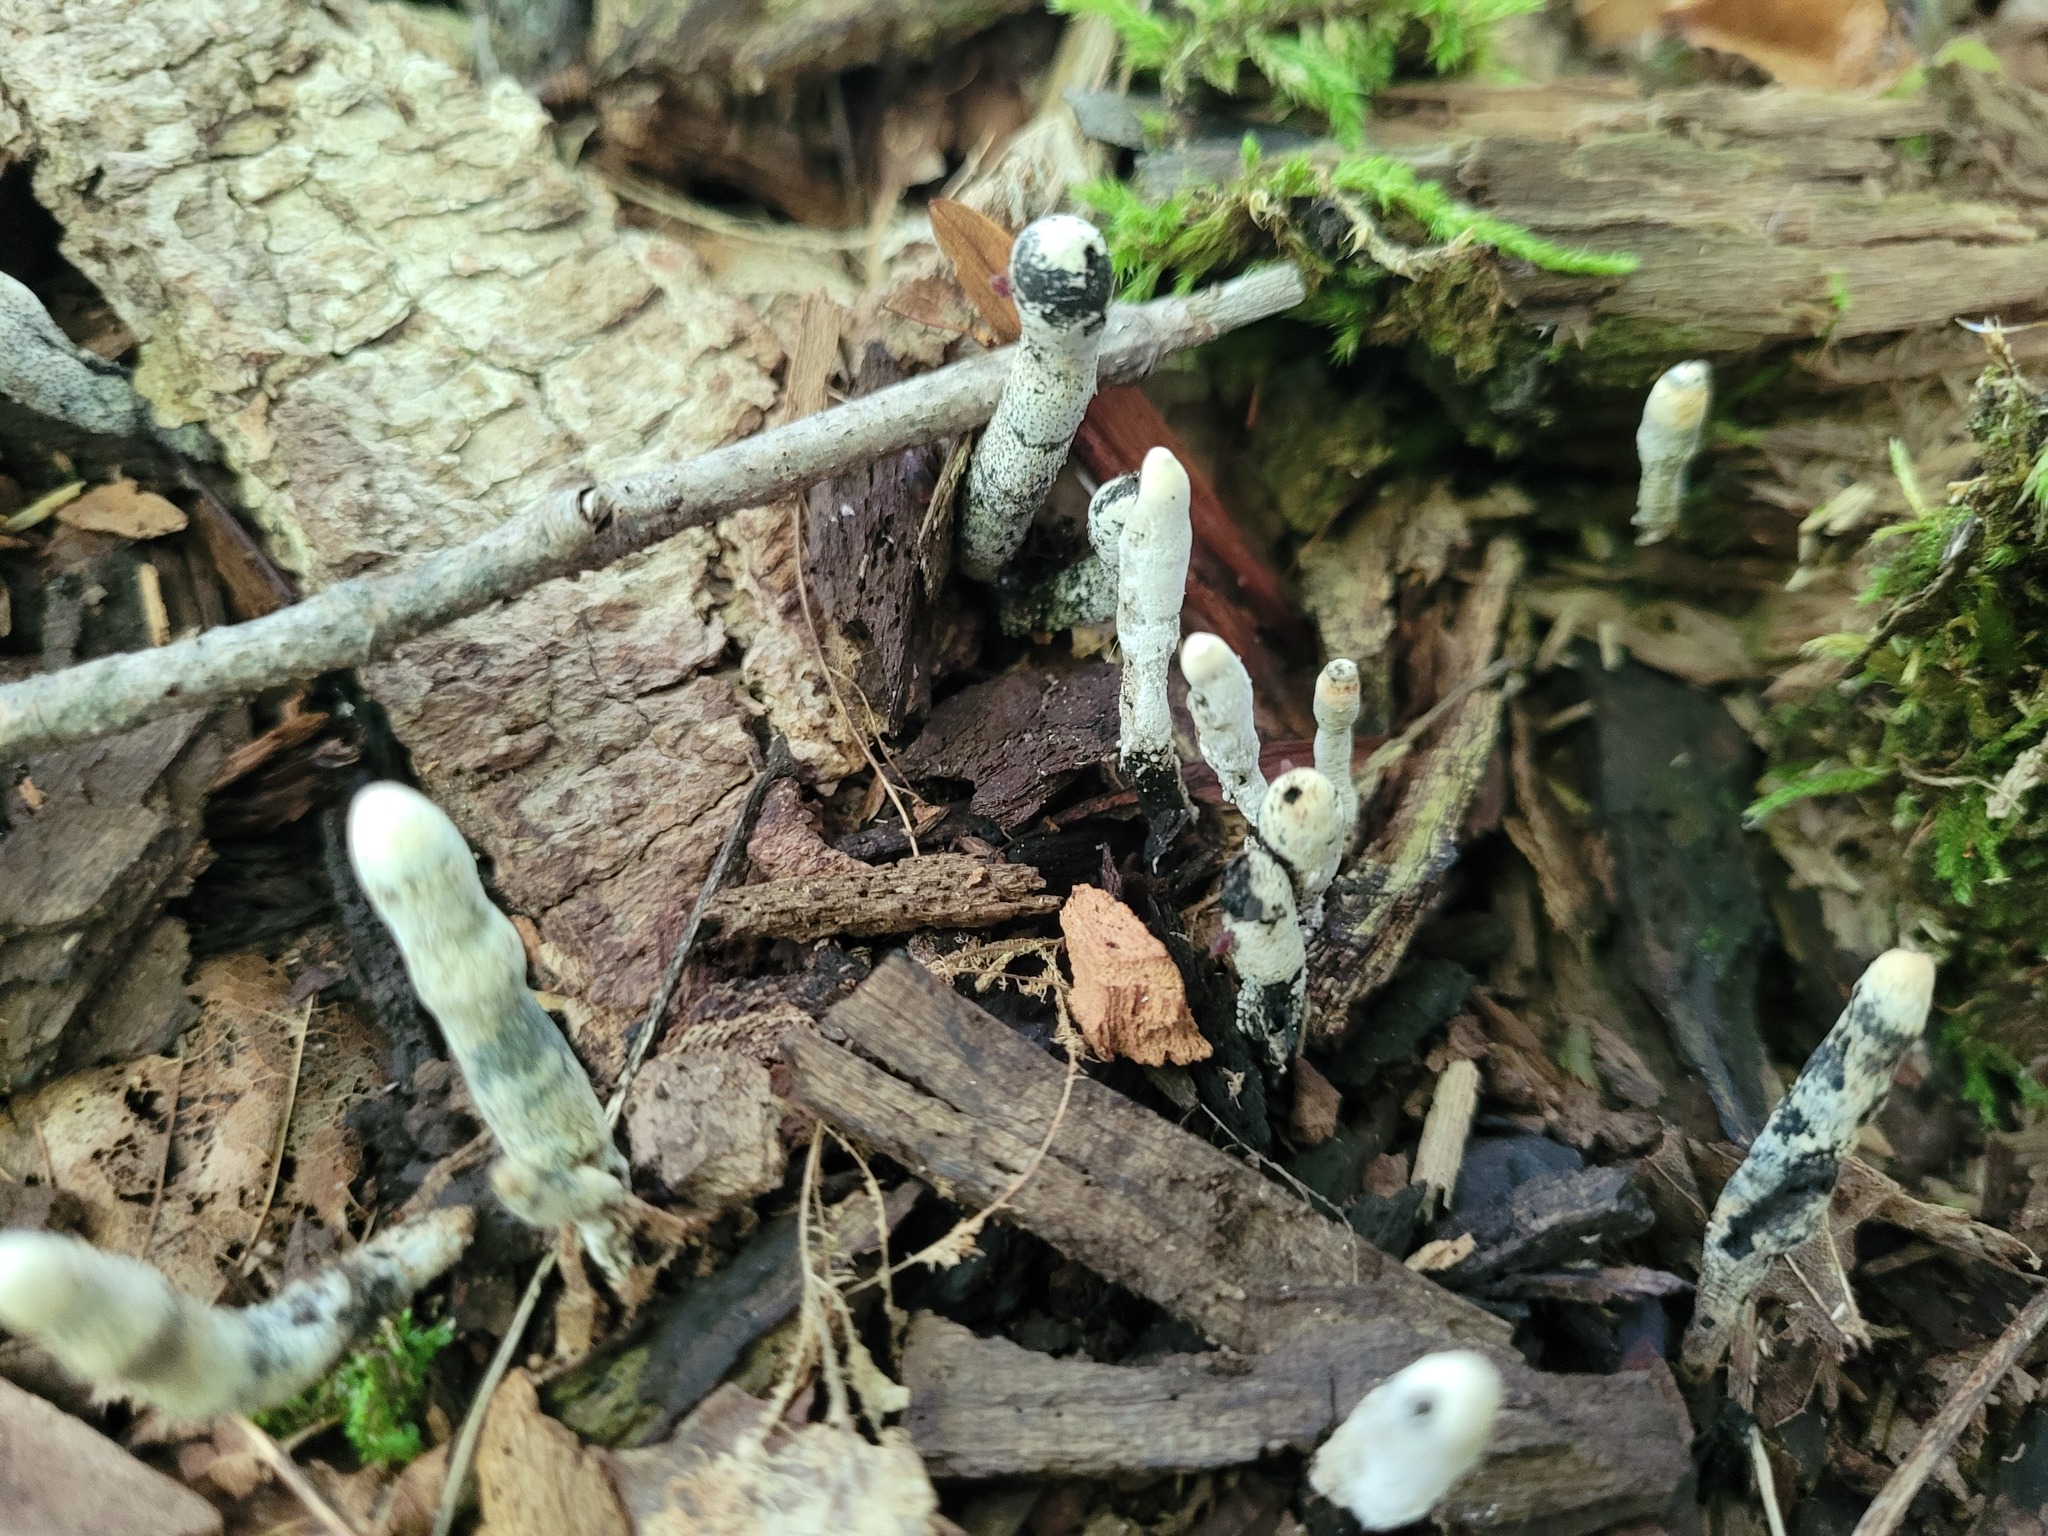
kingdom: Fungi
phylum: Ascomycota
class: Sordariomycetes
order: Xylariales
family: Xylariaceae
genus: Xylaria
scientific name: Xylaria polymorpha
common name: Dead man's fingers
